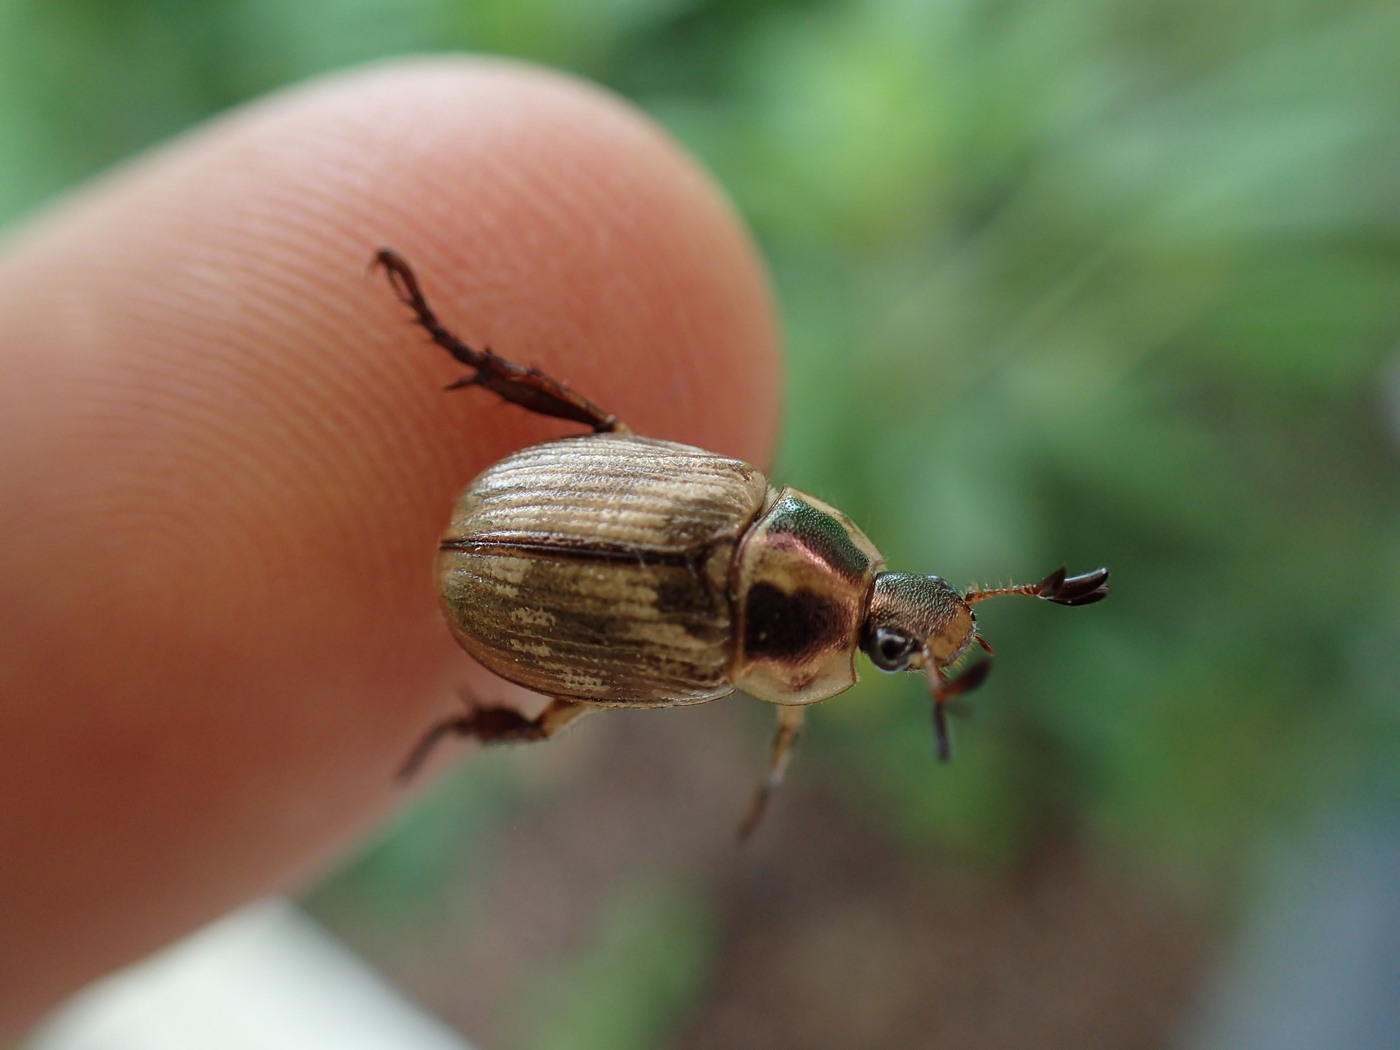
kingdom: Animalia
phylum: Arthropoda
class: Insecta
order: Coleoptera
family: Scarabaeidae
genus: Exomala
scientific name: Exomala orientalis
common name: Oriental beetle
